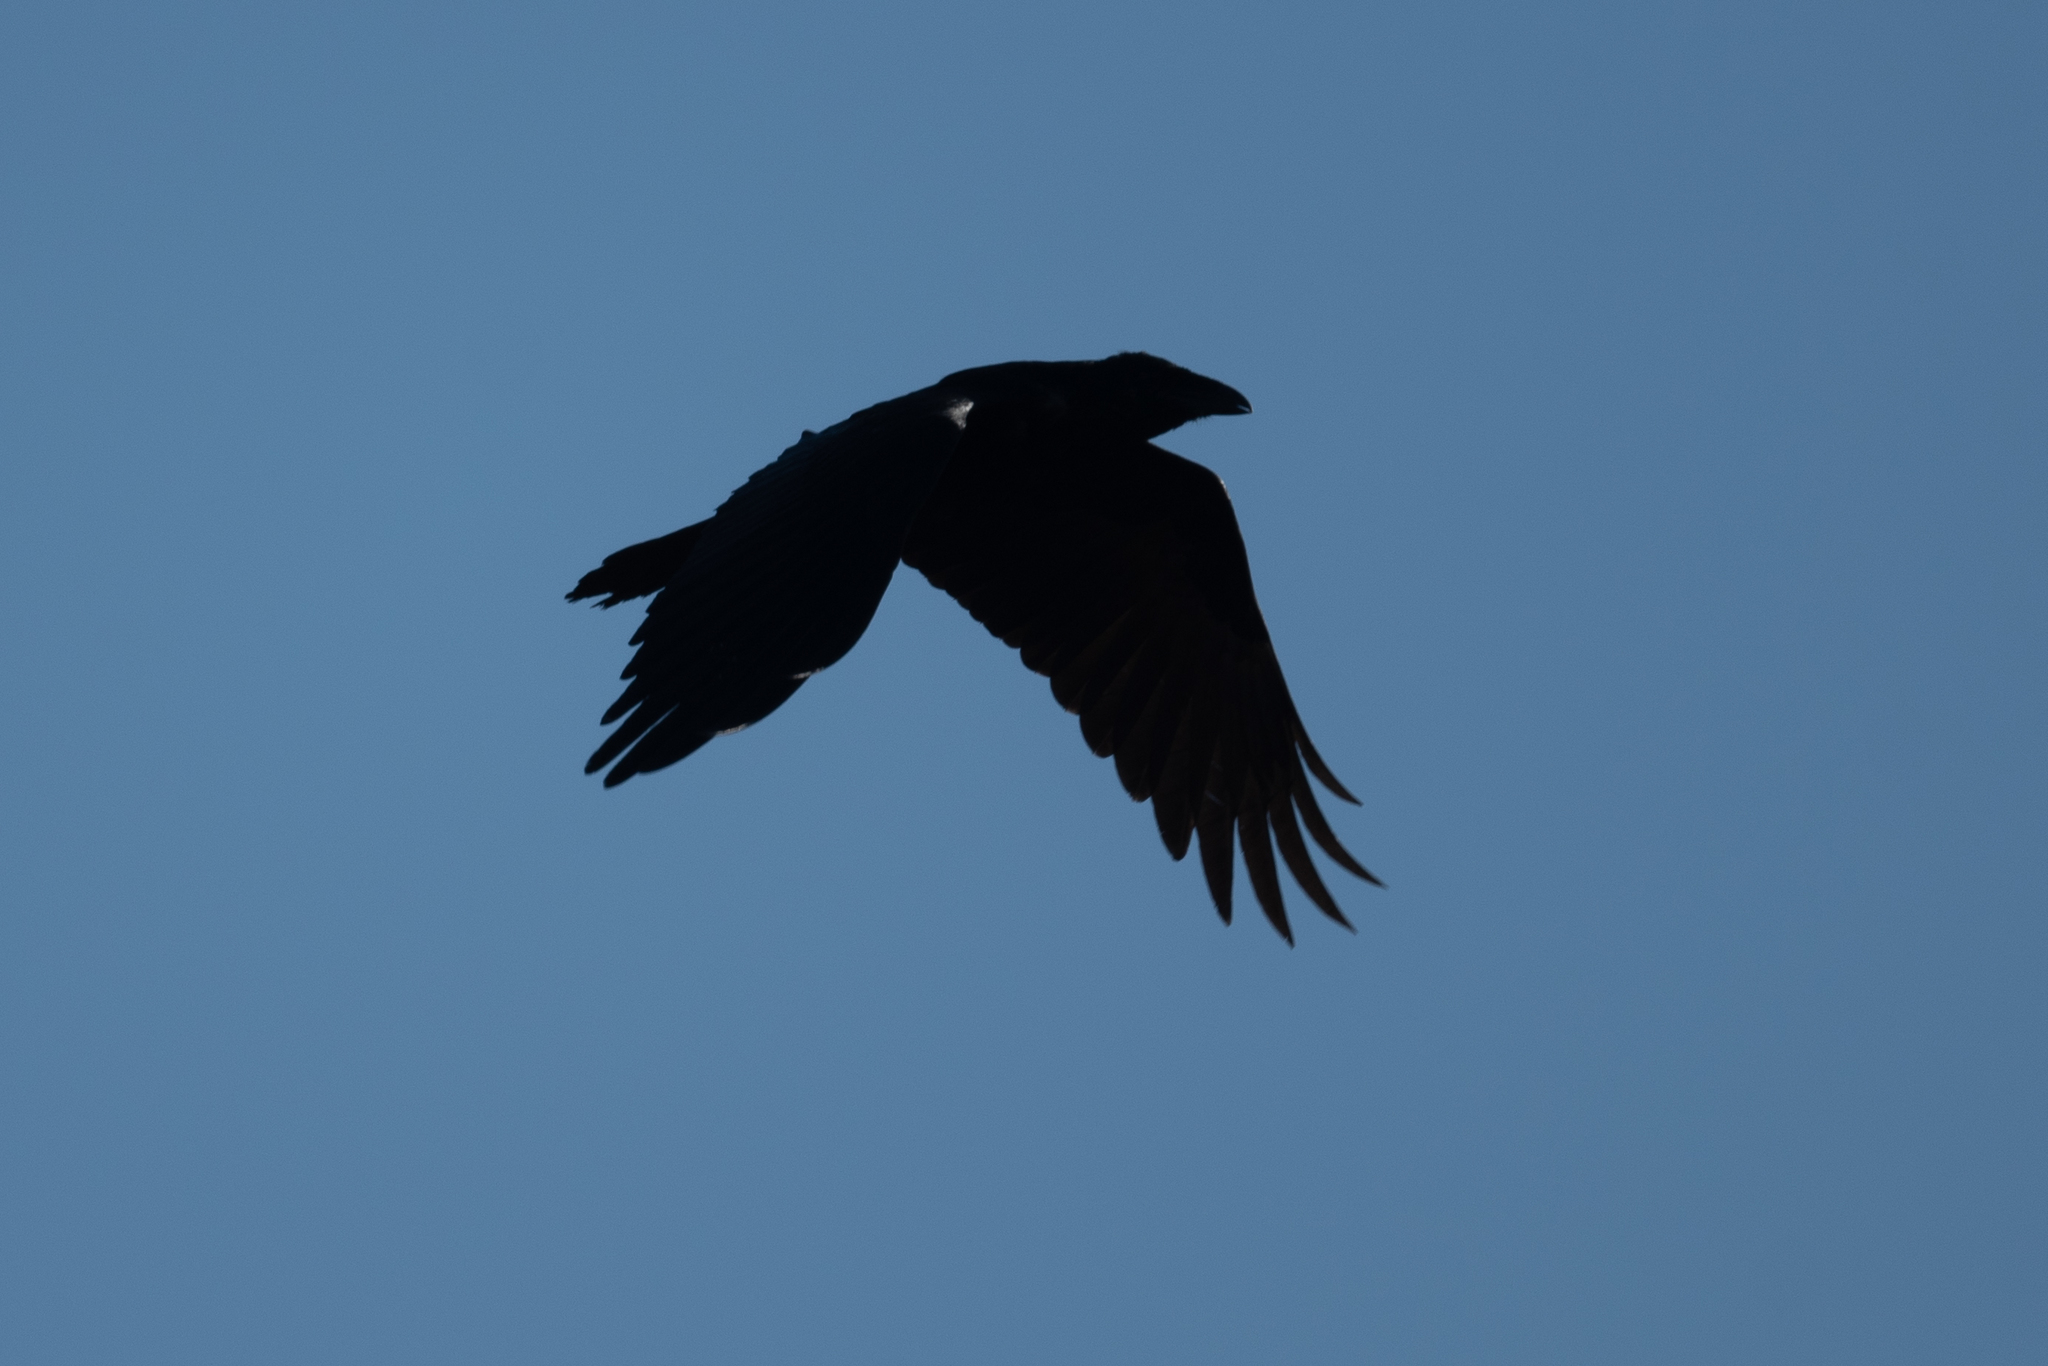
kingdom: Animalia
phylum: Chordata
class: Aves
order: Passeriformes
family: Corvidae
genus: Corvus
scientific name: Corvus corax
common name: Common raven
